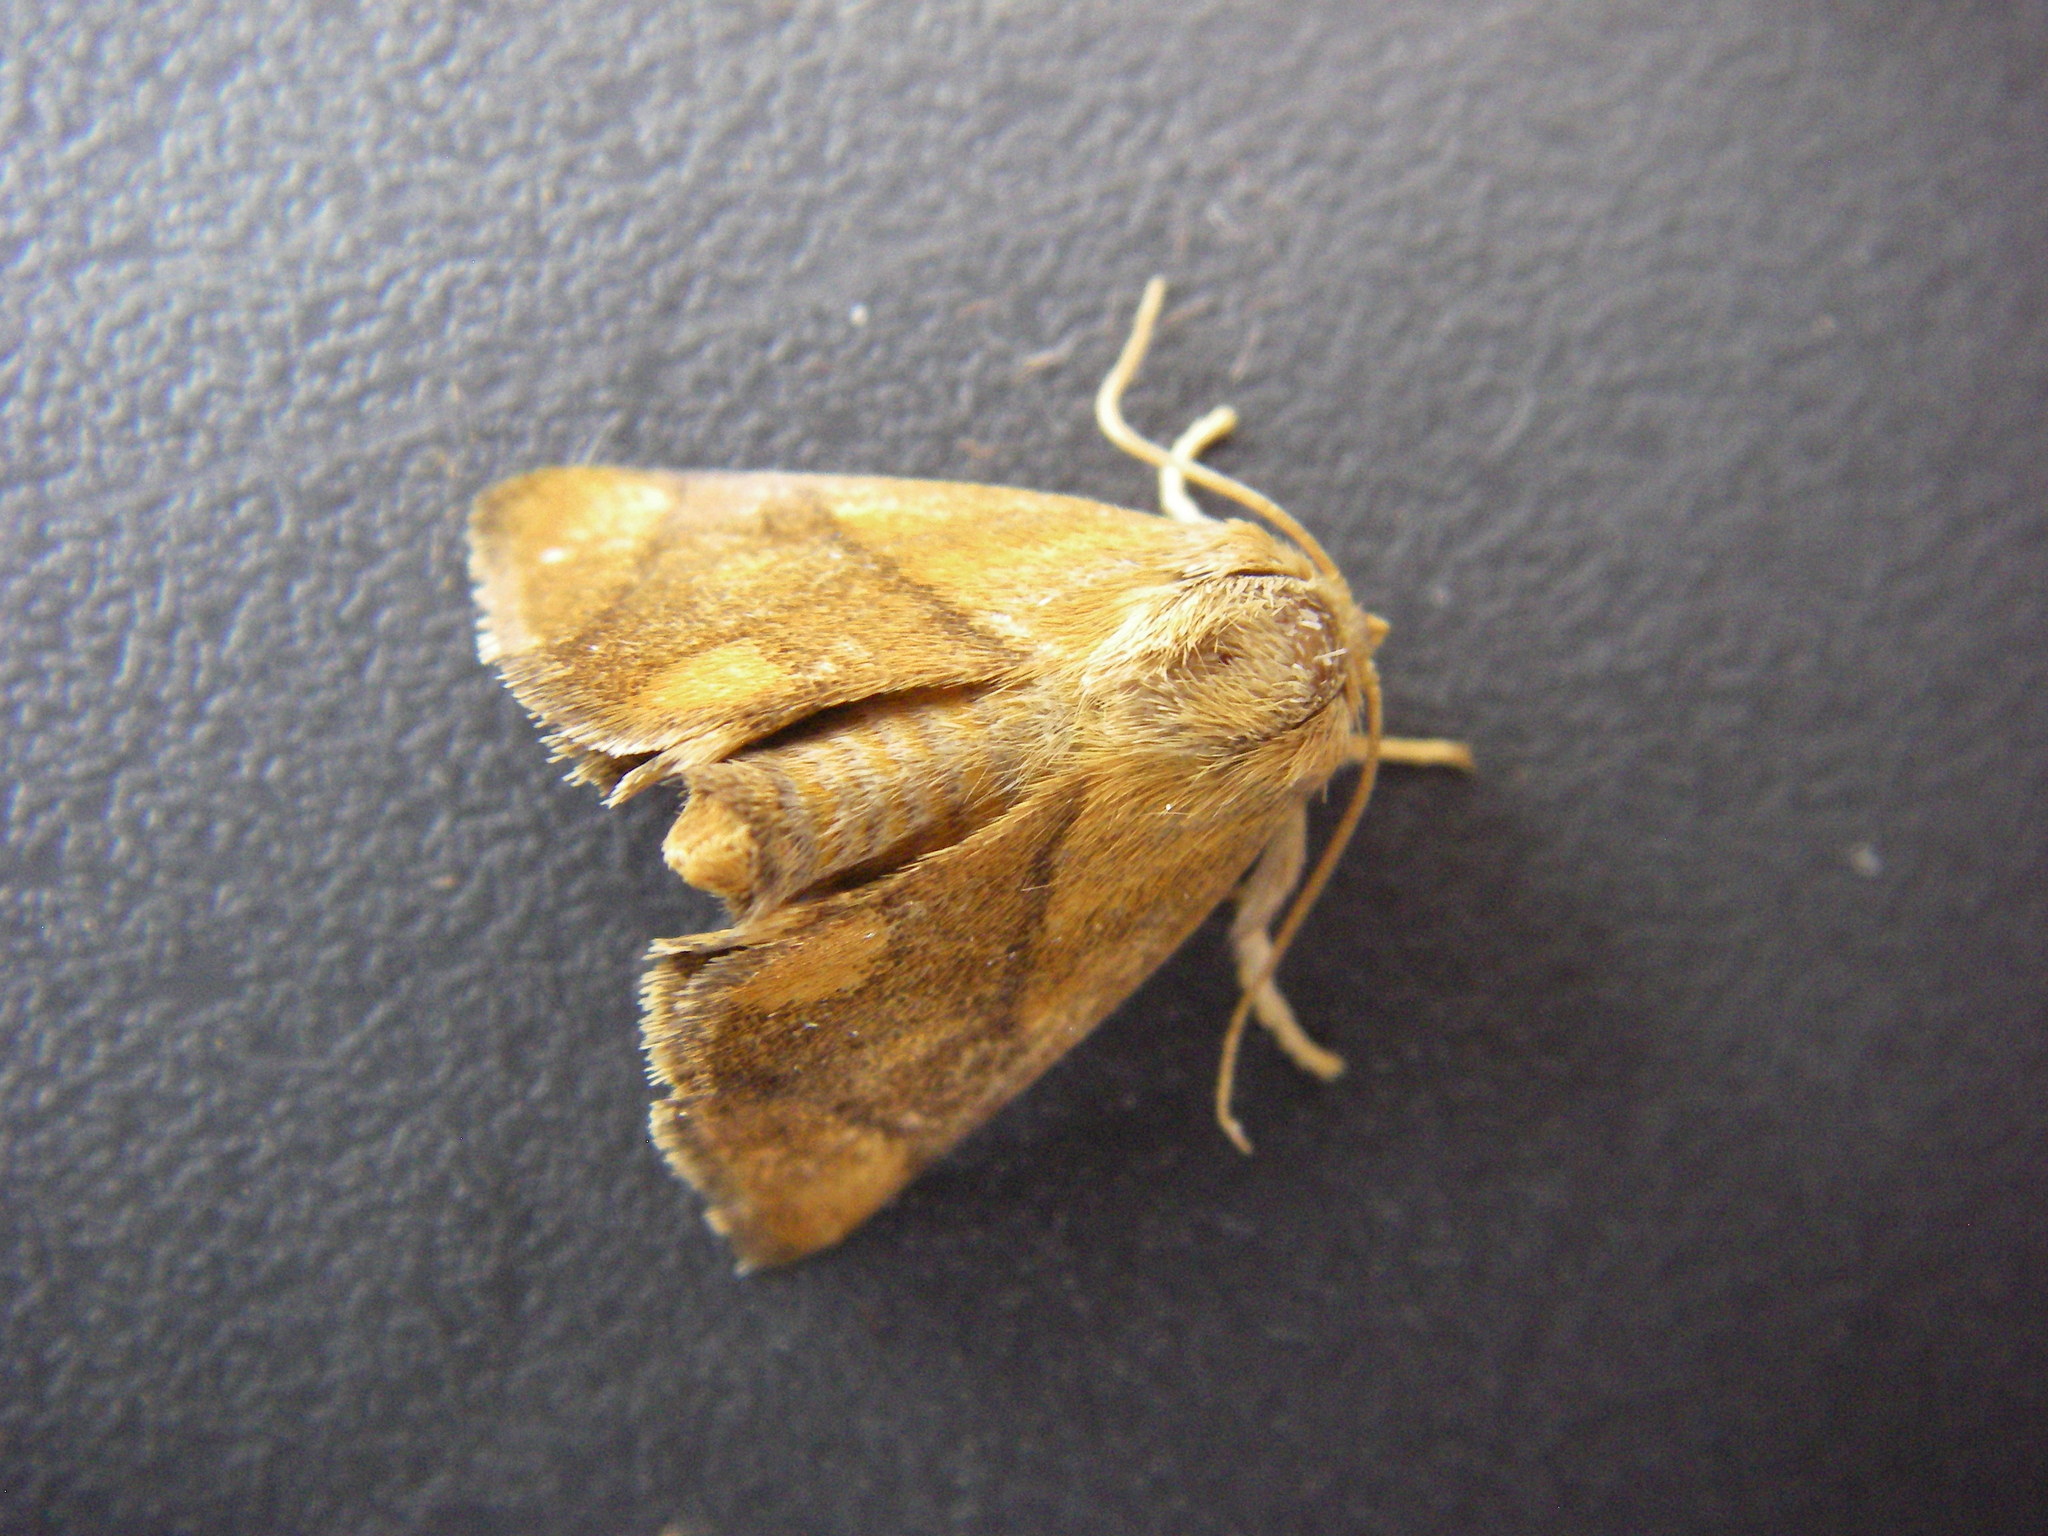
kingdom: Animalia
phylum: Arthropoda
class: Insecta
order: Lepidoptera
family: Limacodidae
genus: Apoda
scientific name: Apoda limacodes
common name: Festoon
